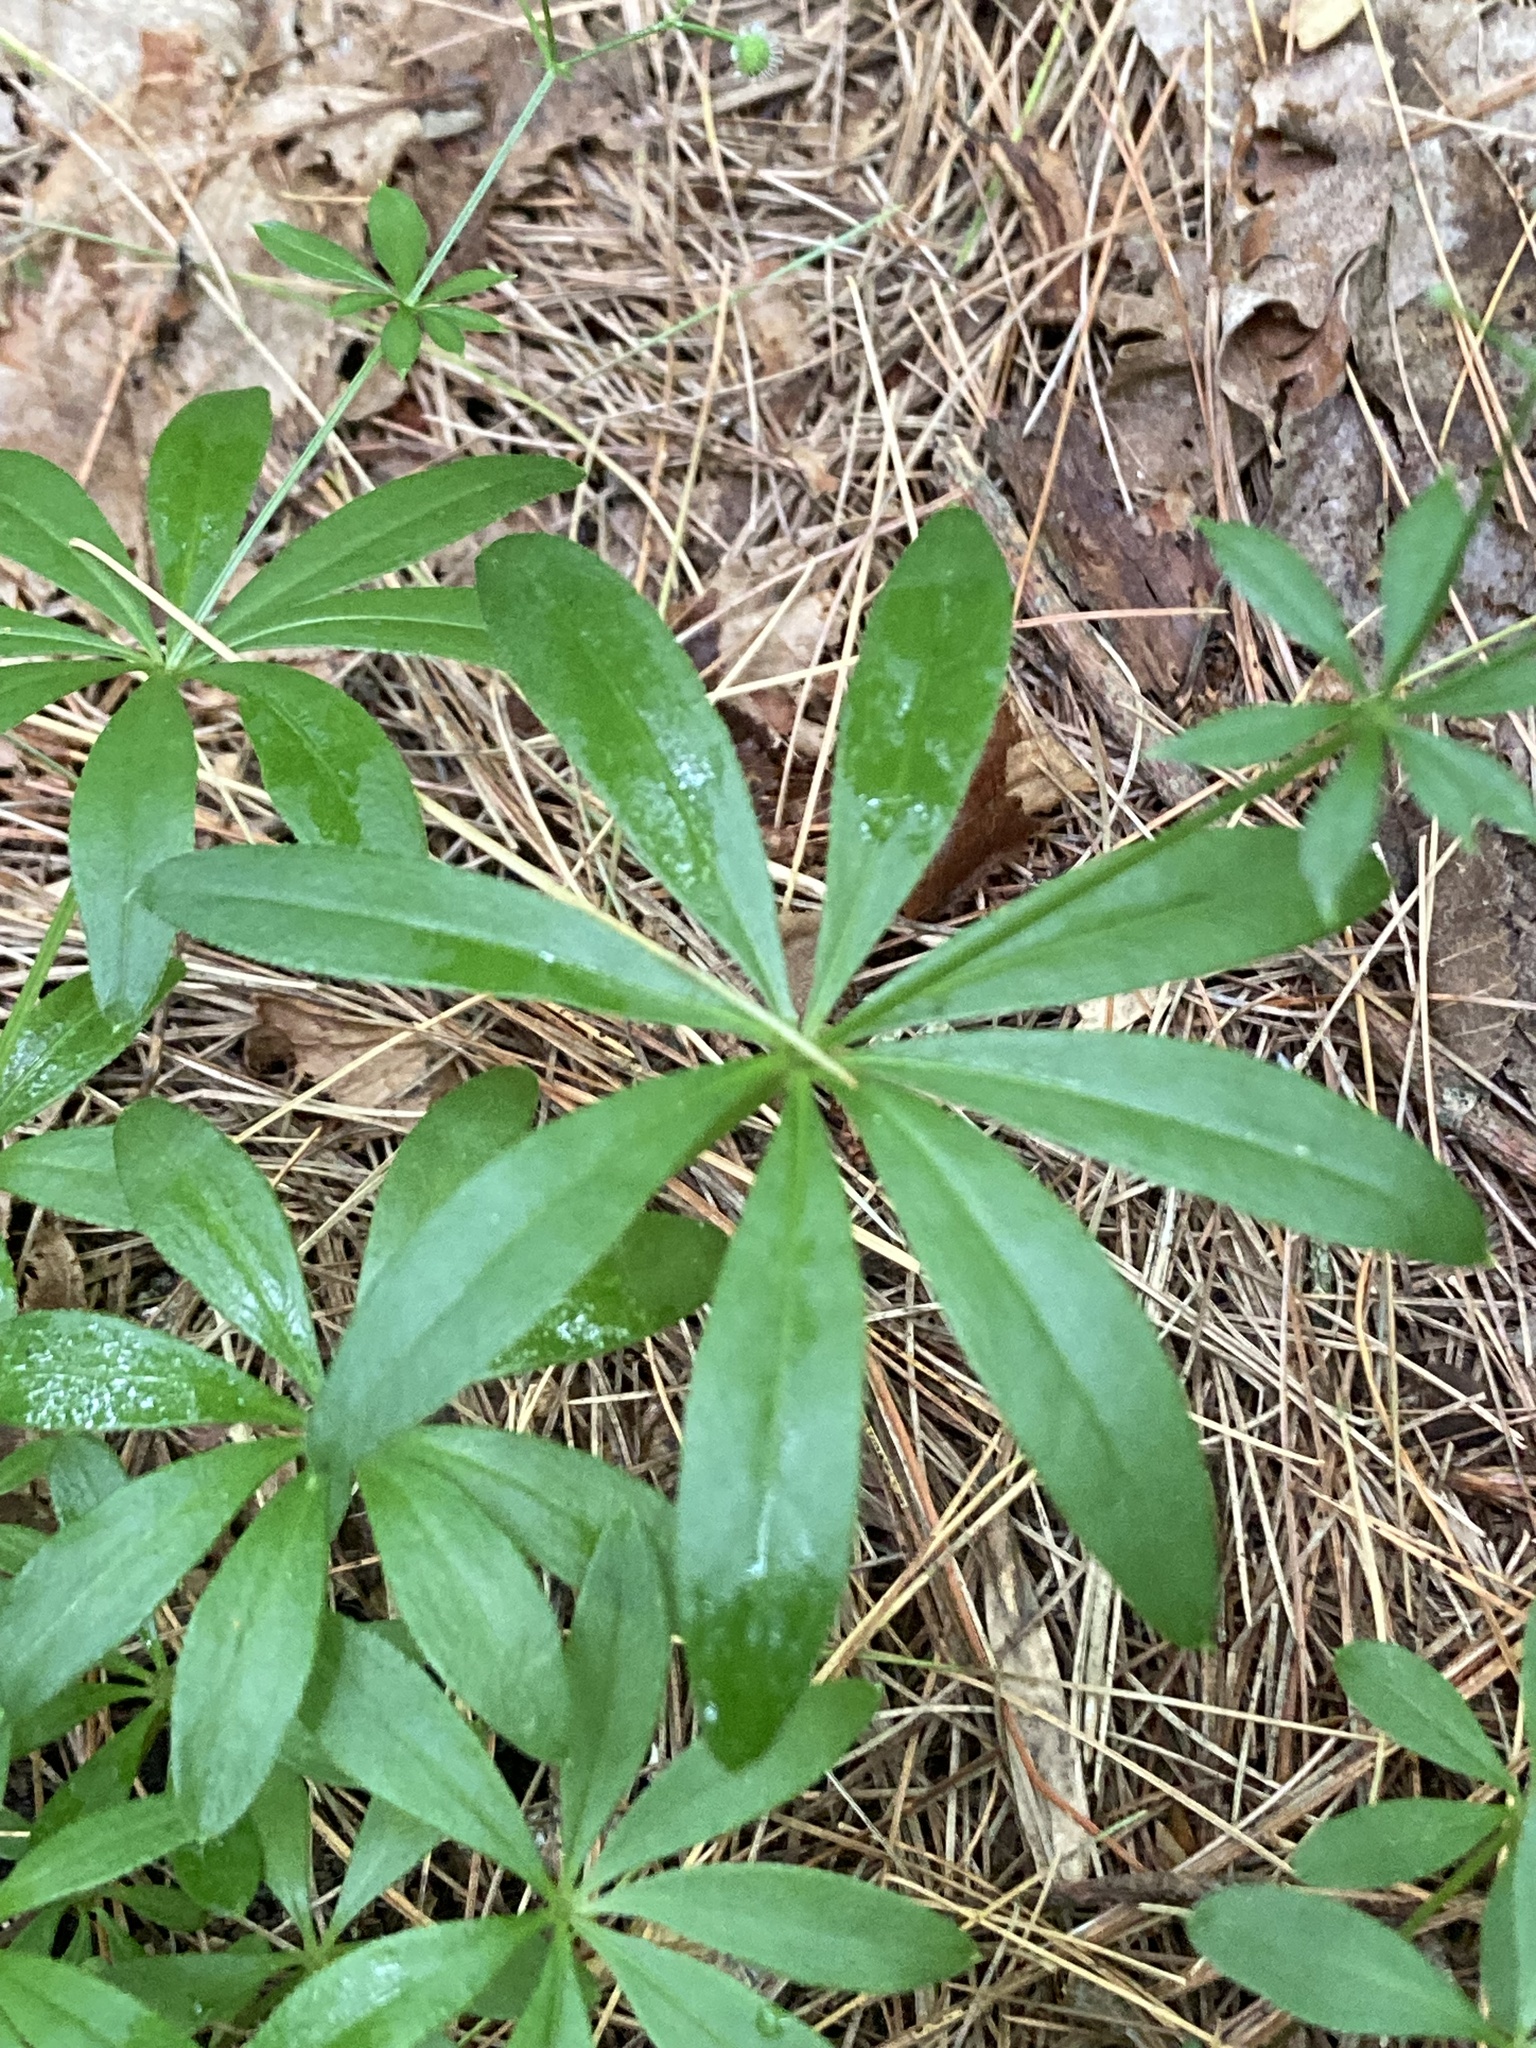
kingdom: Plantae
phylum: Tracheophyta
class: Magnoliopsida
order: Gentianales
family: Rubiaceae
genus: Galium
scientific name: Galium odoratum
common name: Sweet woodruff
